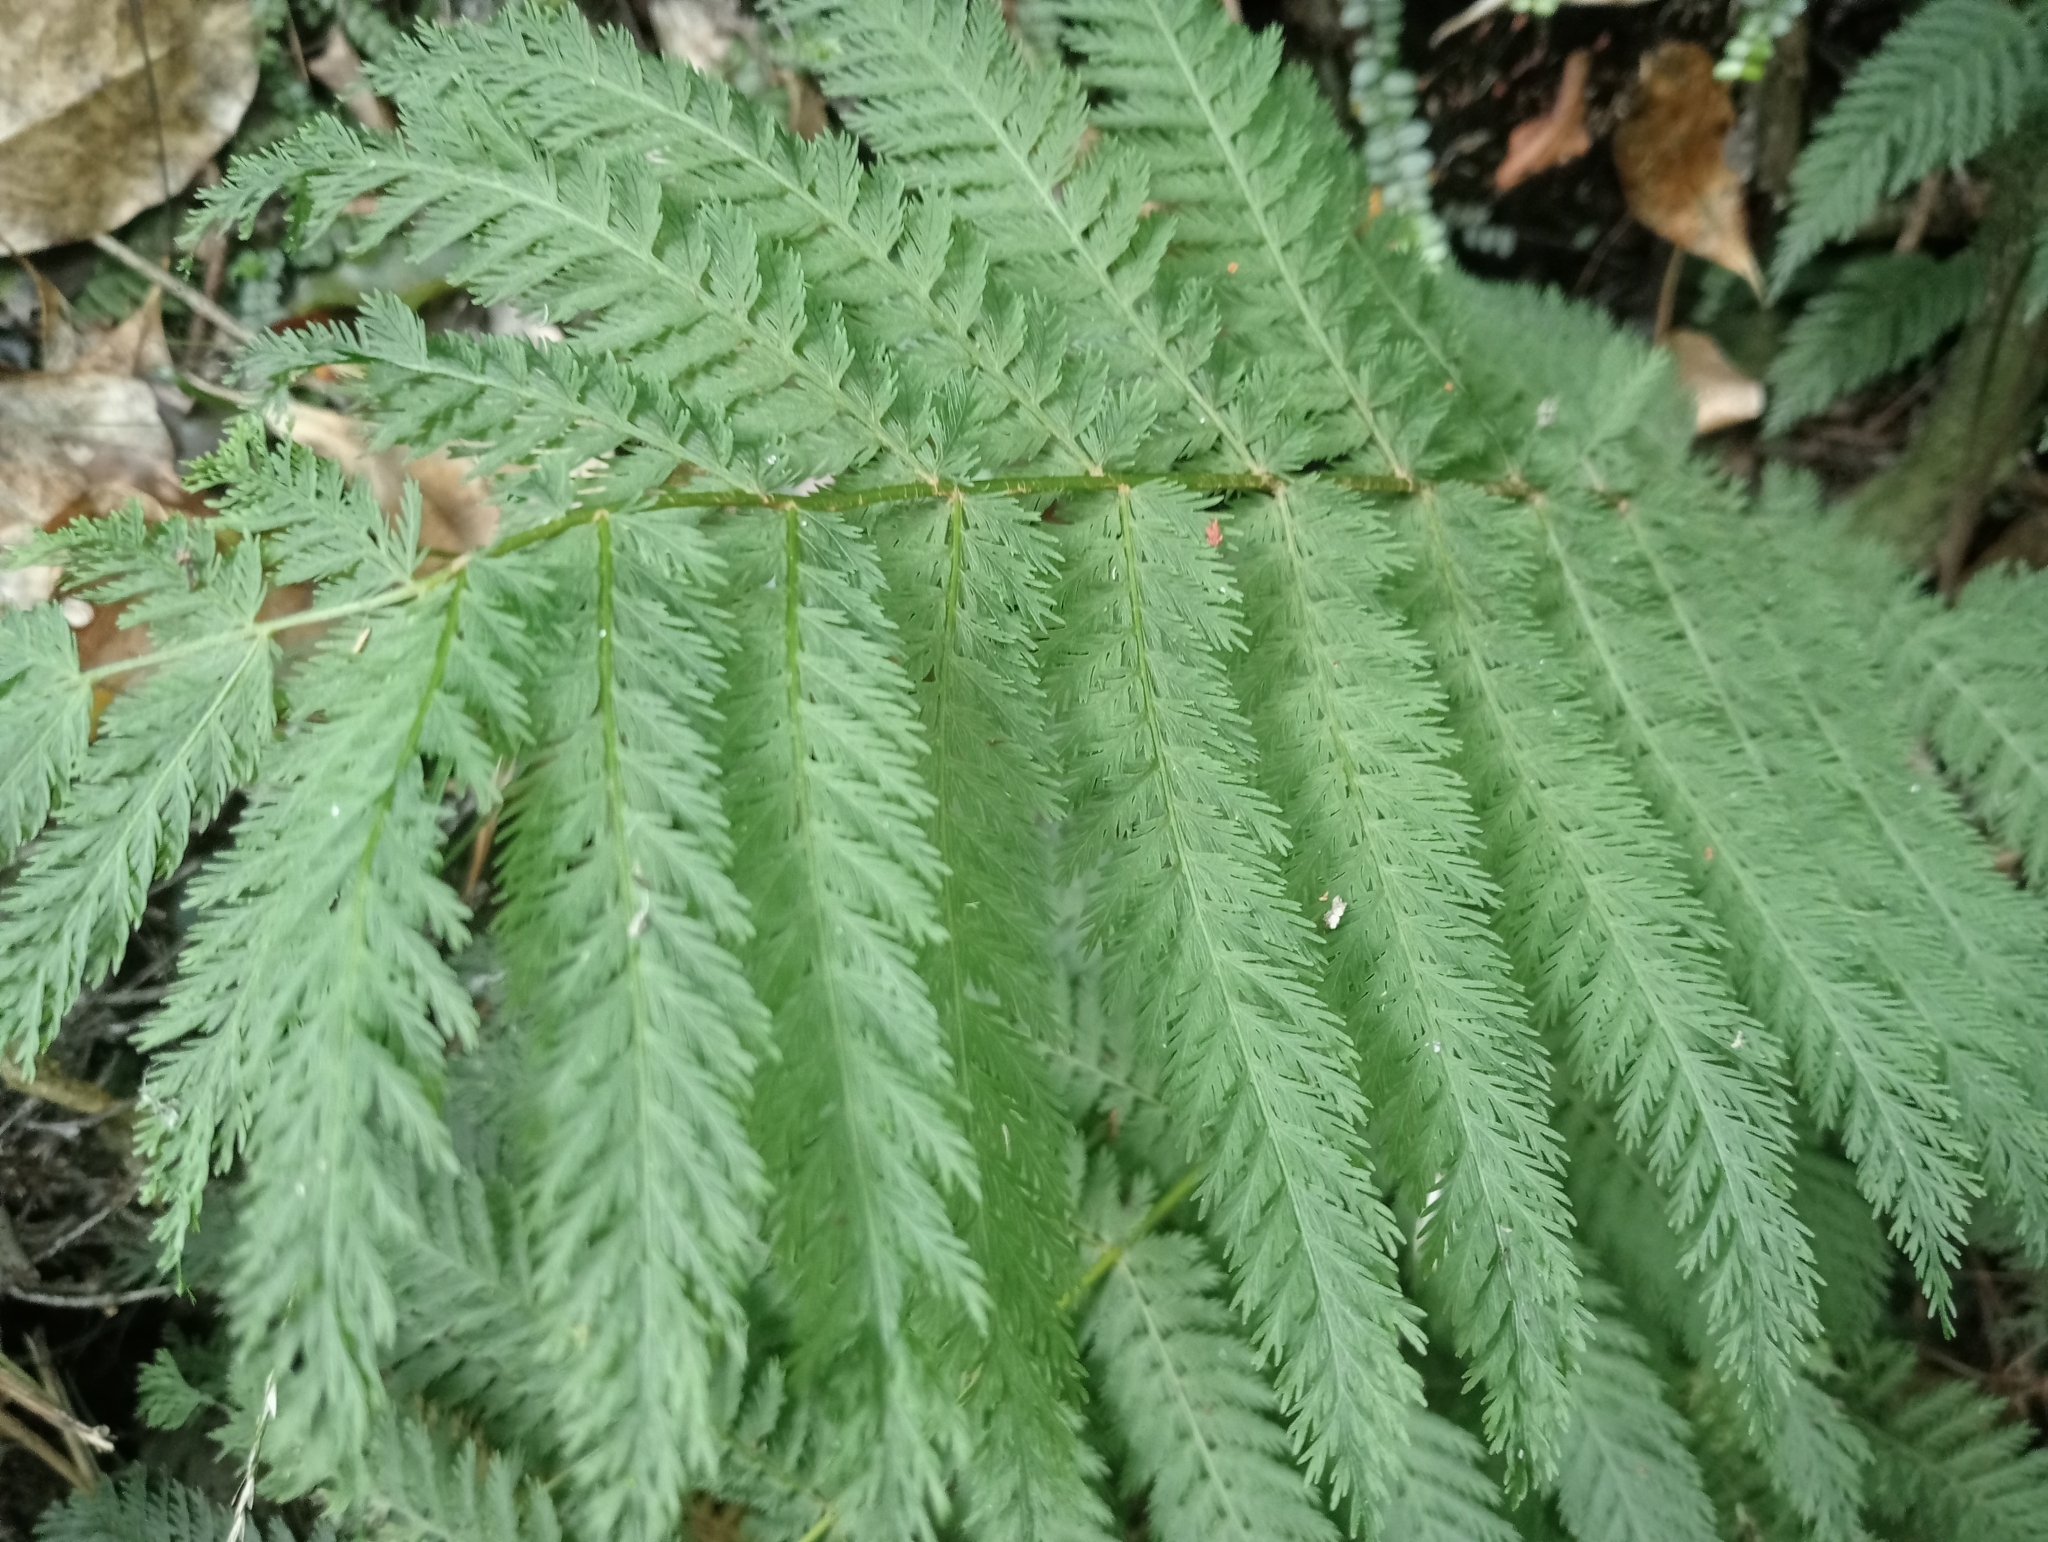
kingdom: Plantae
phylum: Tracheophyta
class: Polypodiopsida
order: Osmundales
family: Osmundaceae
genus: Leptopteris
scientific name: Leptopteris hymenophylloides
